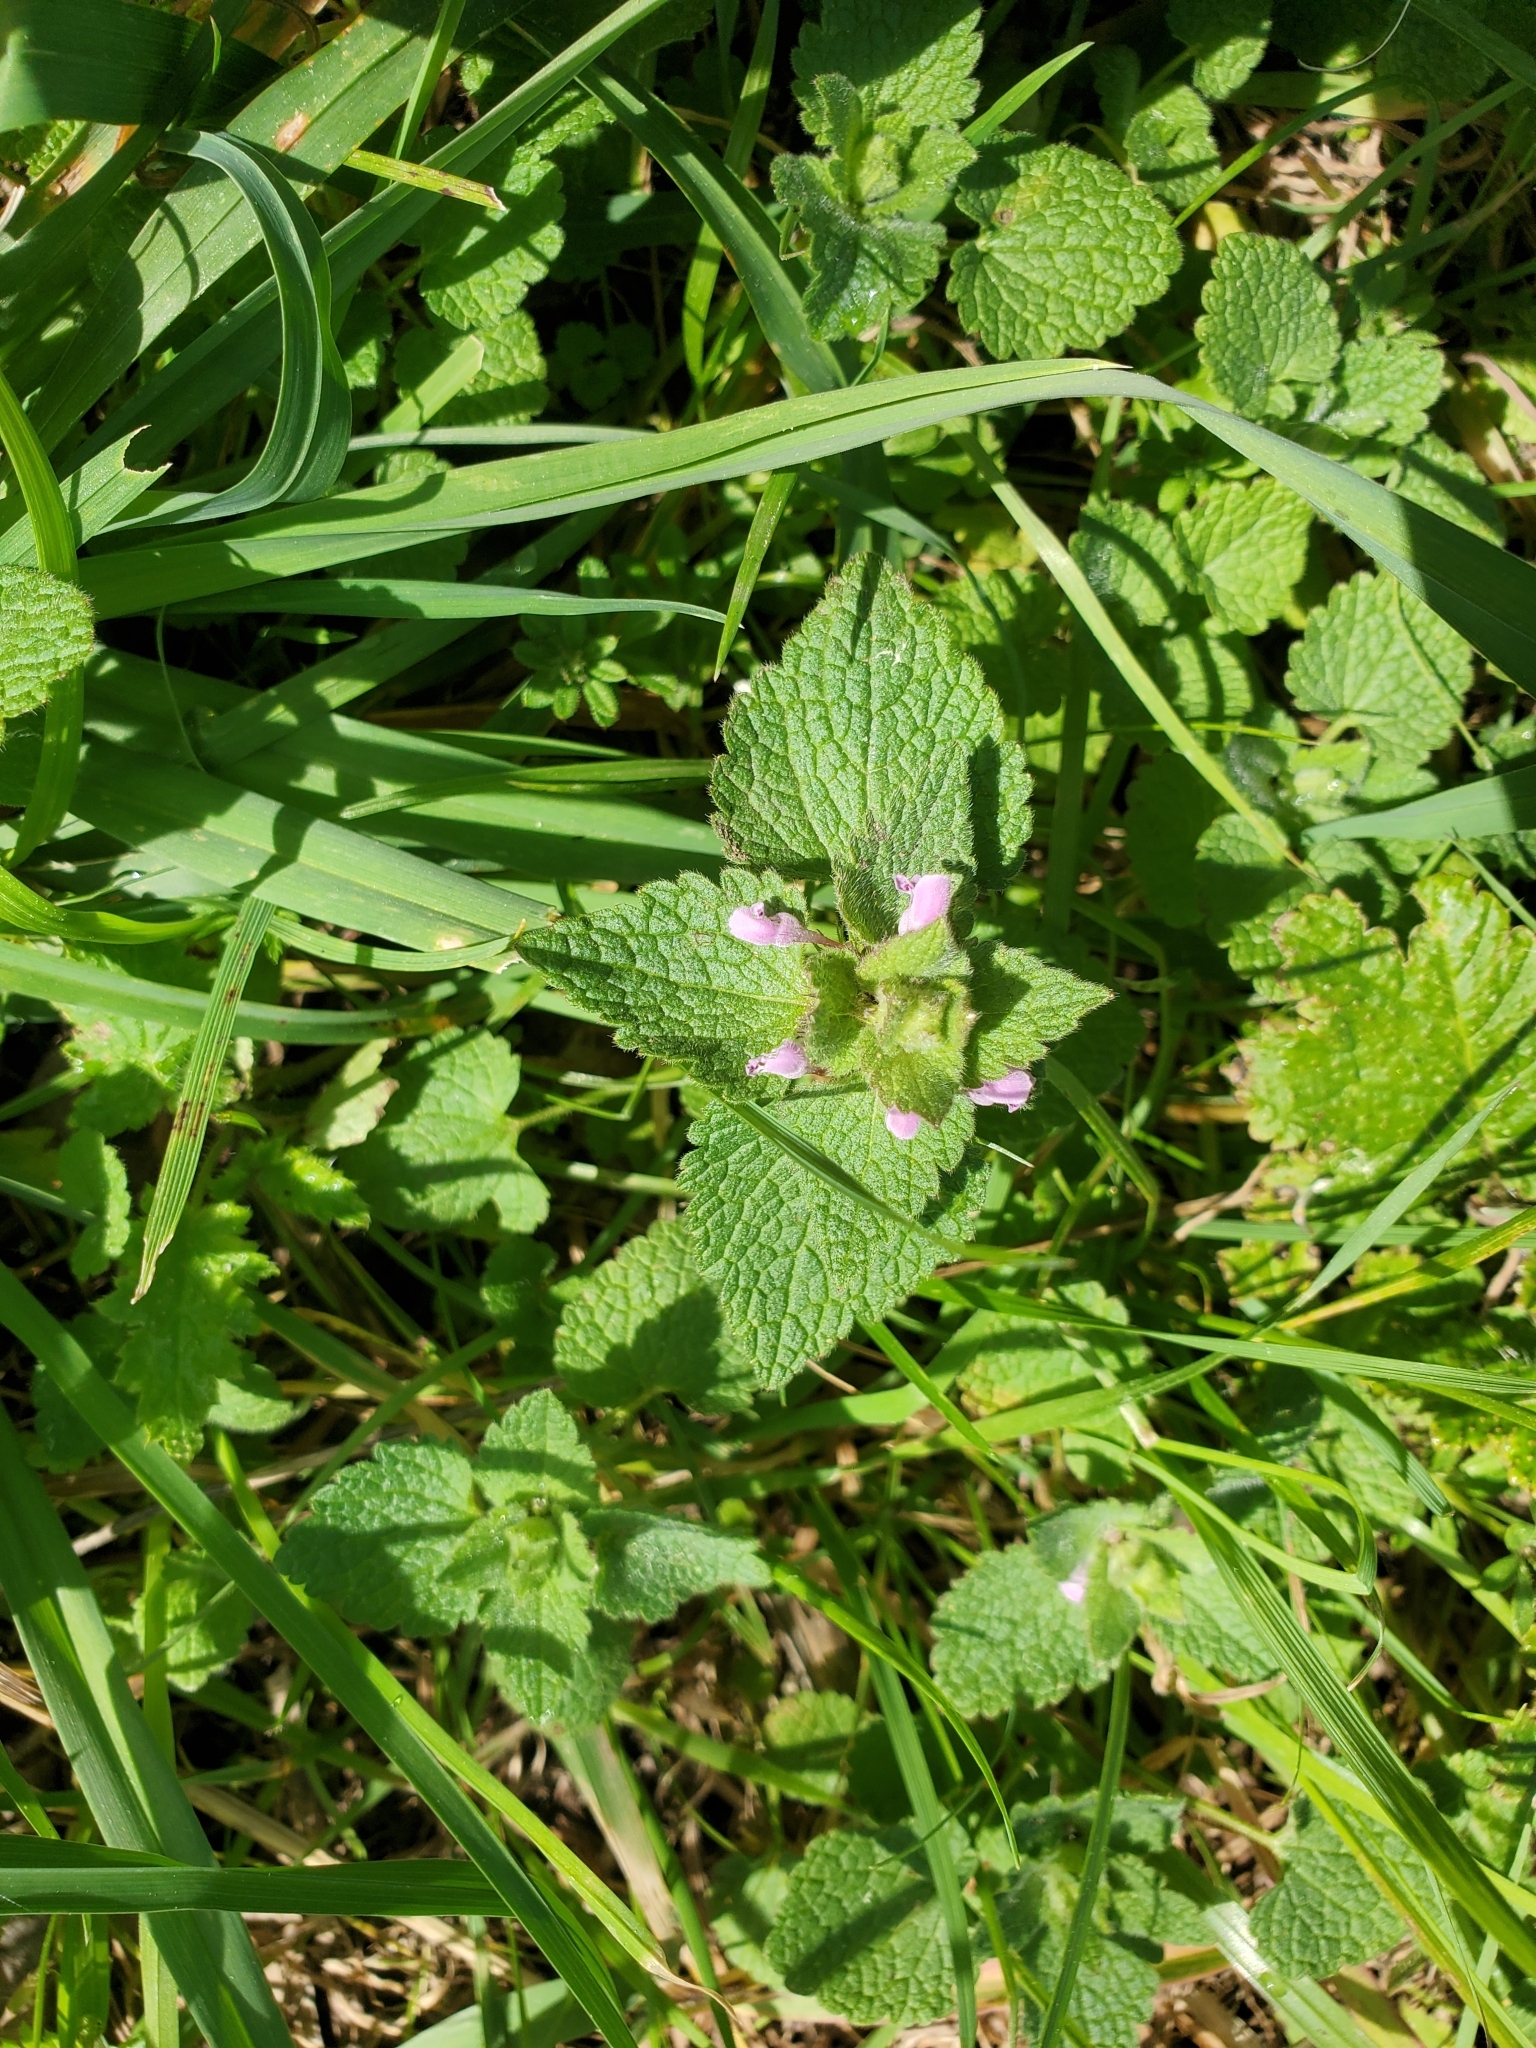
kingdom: Plantae
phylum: Tracheophyta
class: Magnoliopsida
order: Lamiales
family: Lamiaceae
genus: Lamium
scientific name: Lamium purpureum
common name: Red dead-nettle
